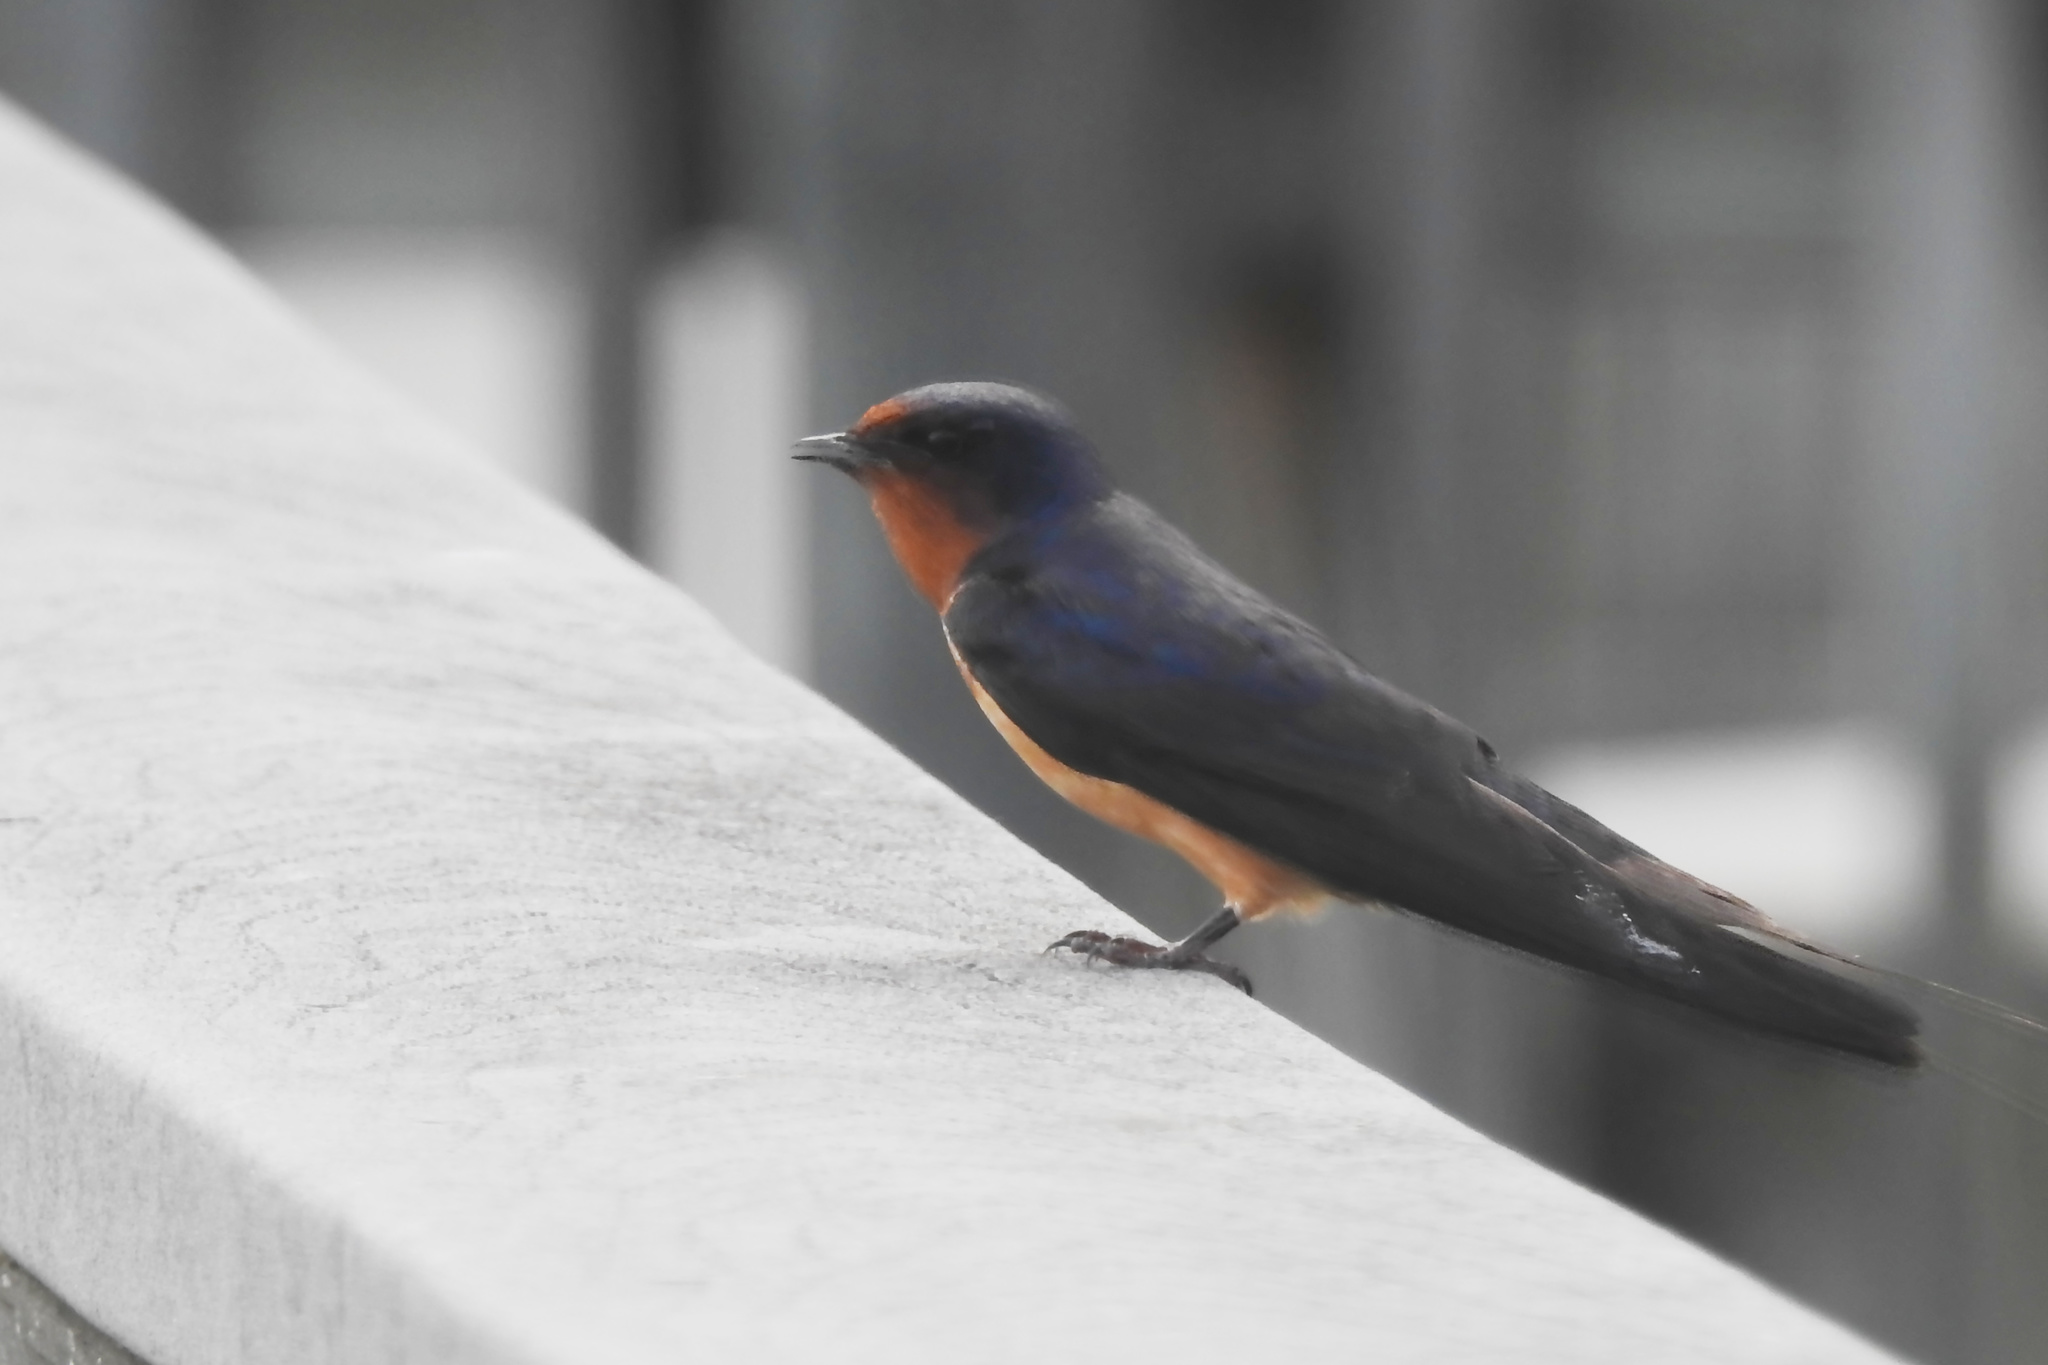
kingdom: Animalia
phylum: Chordata
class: Aves
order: Passeriformes
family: Hirundinidae
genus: Hirundo
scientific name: Hirundo rustica
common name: Barn swallow
